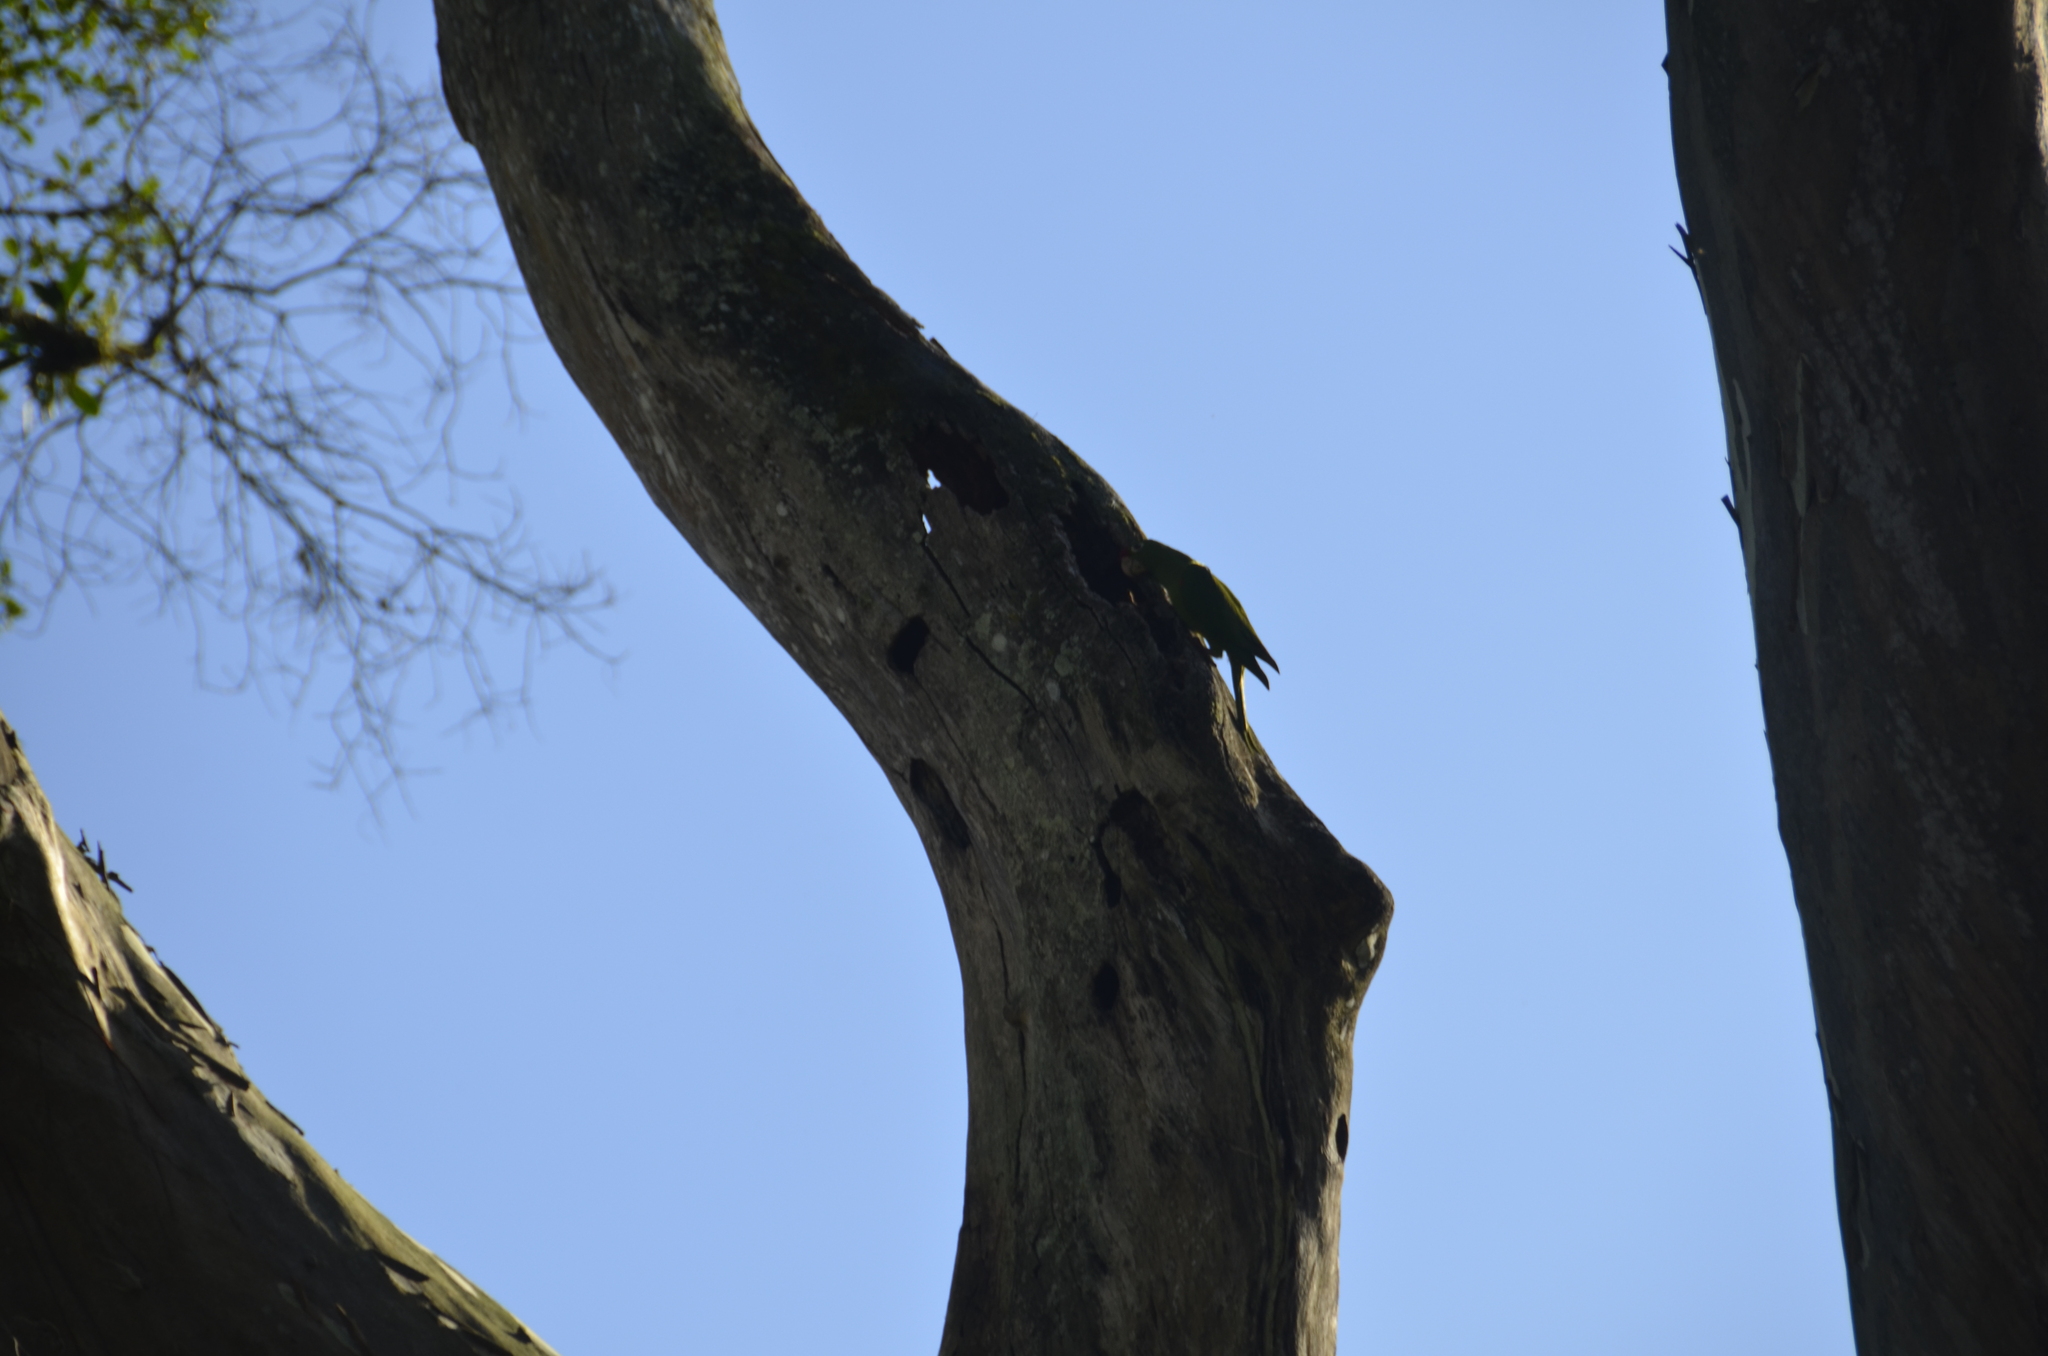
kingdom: Animalia
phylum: Chordata
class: Aves
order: Psittaciformes
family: Psittacidae
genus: Aratinga
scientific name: Aratinga finschi
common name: Crimson-fronted parakeet
